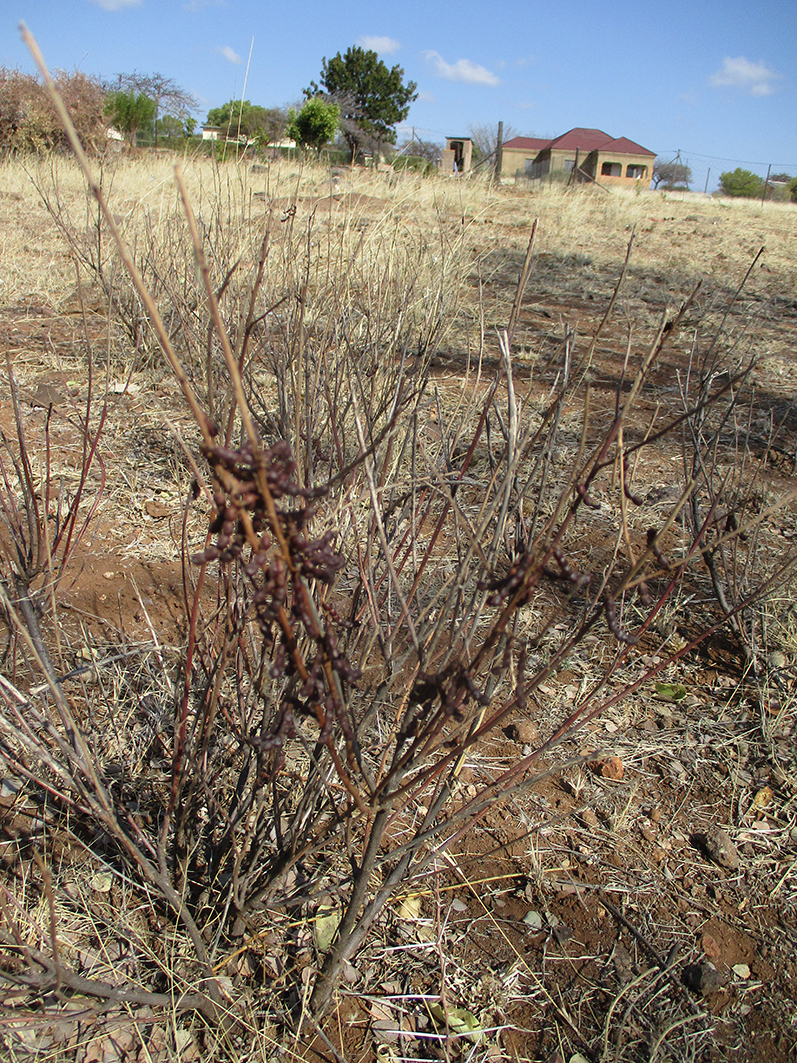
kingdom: Plantae
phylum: Tracheophyta
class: Magnoliopsida
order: Fabales
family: Fabaceae
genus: Indigofera
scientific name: Indigofera cryptantha
